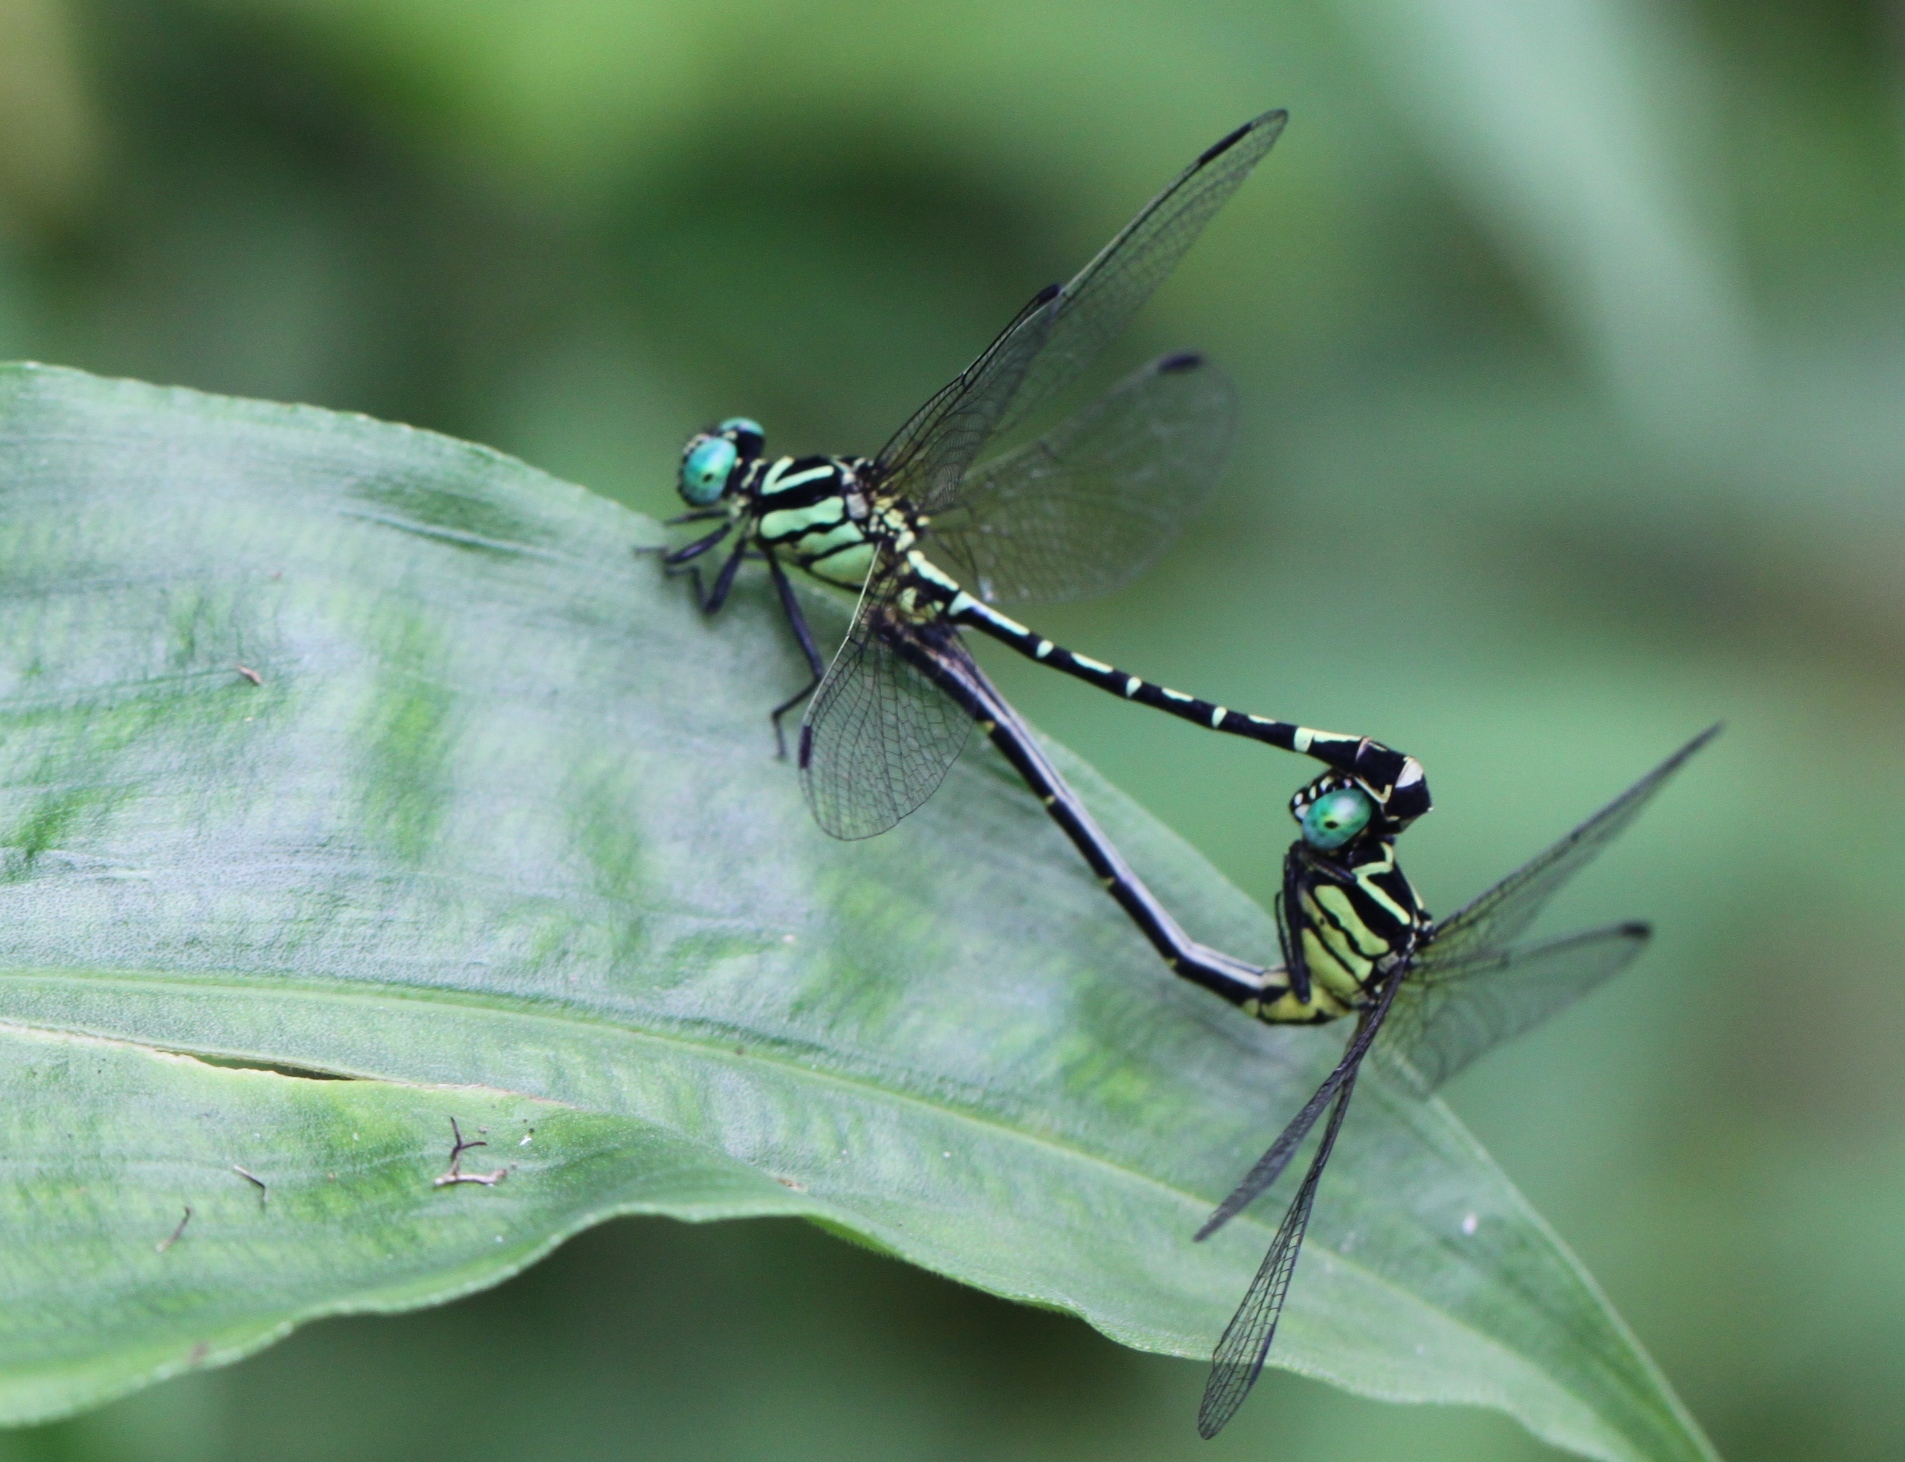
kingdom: Animalia
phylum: Arthropoda
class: Insecta
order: Odonata
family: Gomphidae
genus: Nepogomphus
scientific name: Nepogomphus walli
